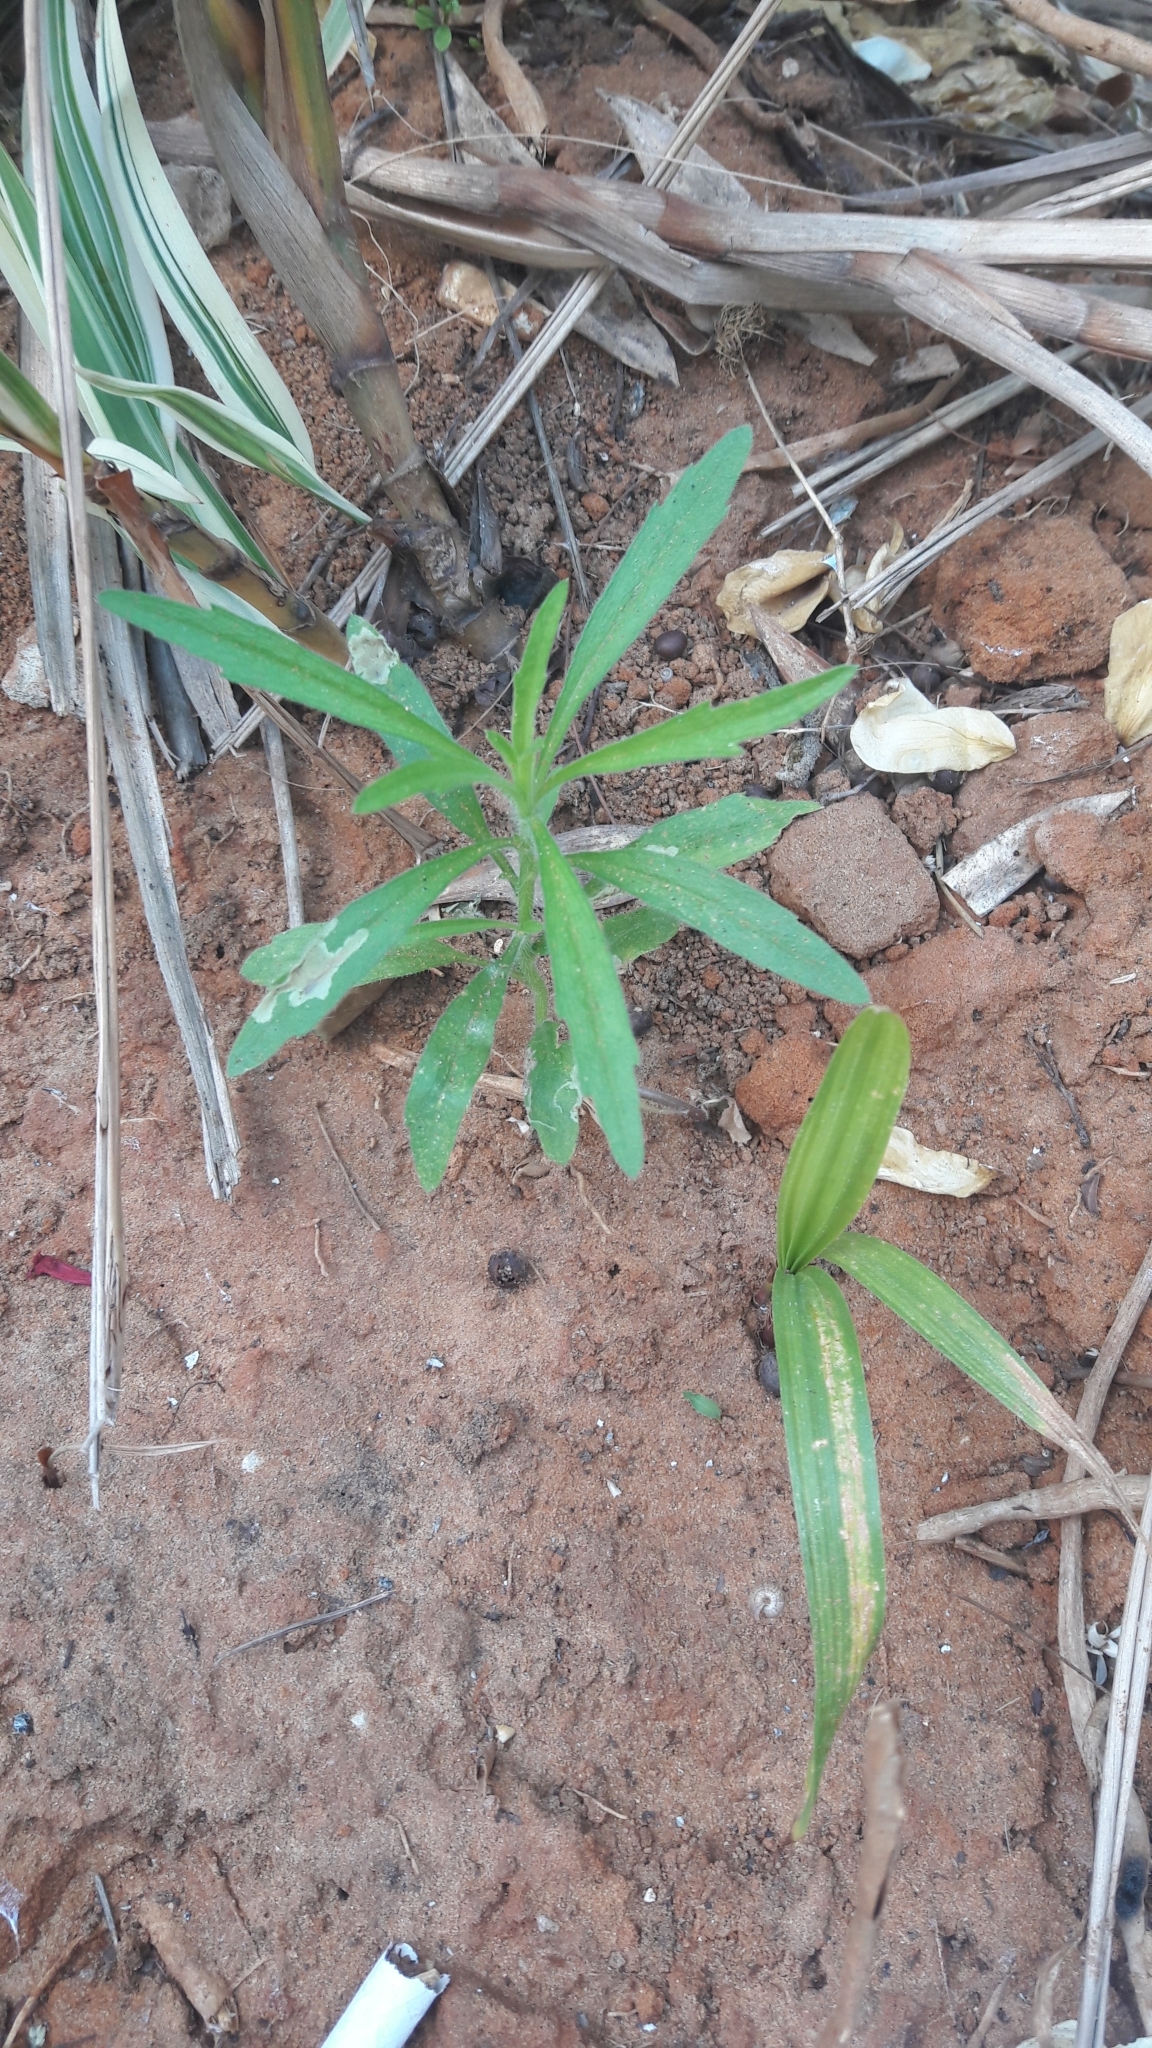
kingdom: Plantae
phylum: Tracheophyta
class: Magnoliopsida
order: Asterales
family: Asteraceae
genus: Erigeron
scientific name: Erigeron canadensis
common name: Canadian fleabane
